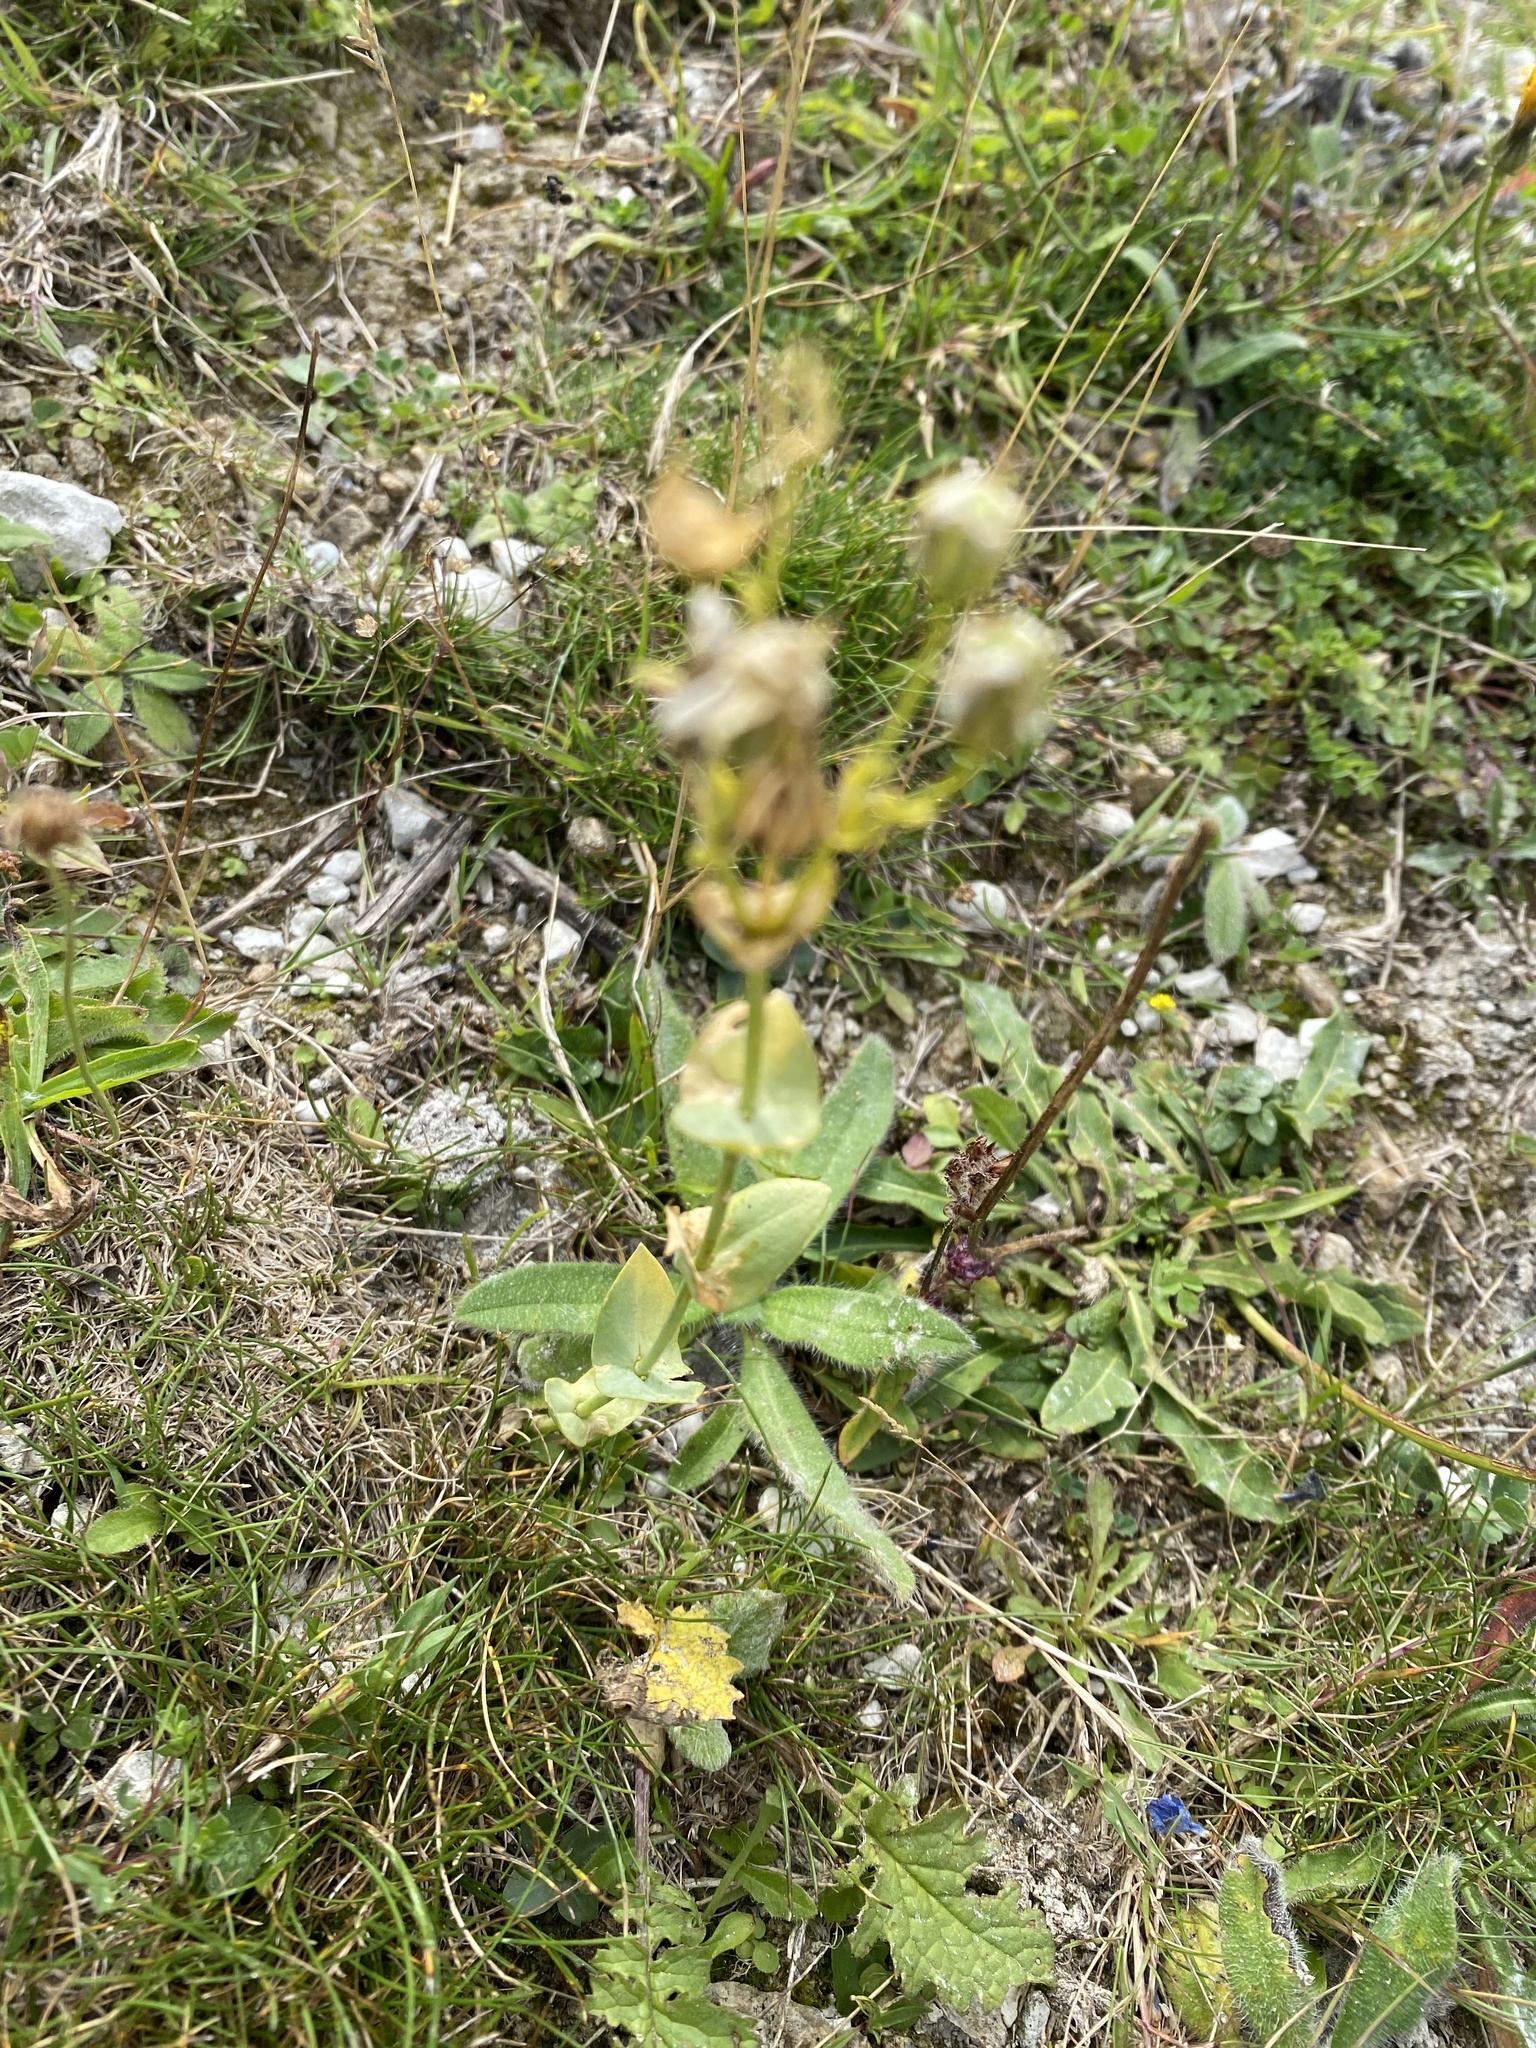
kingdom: Plantae
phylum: Tracheophyta
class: Magnoliopsida
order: Gentianales
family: Gentianaceae
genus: Blackstonia
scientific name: Blackstonia perfoliata
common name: Yellow-wort
